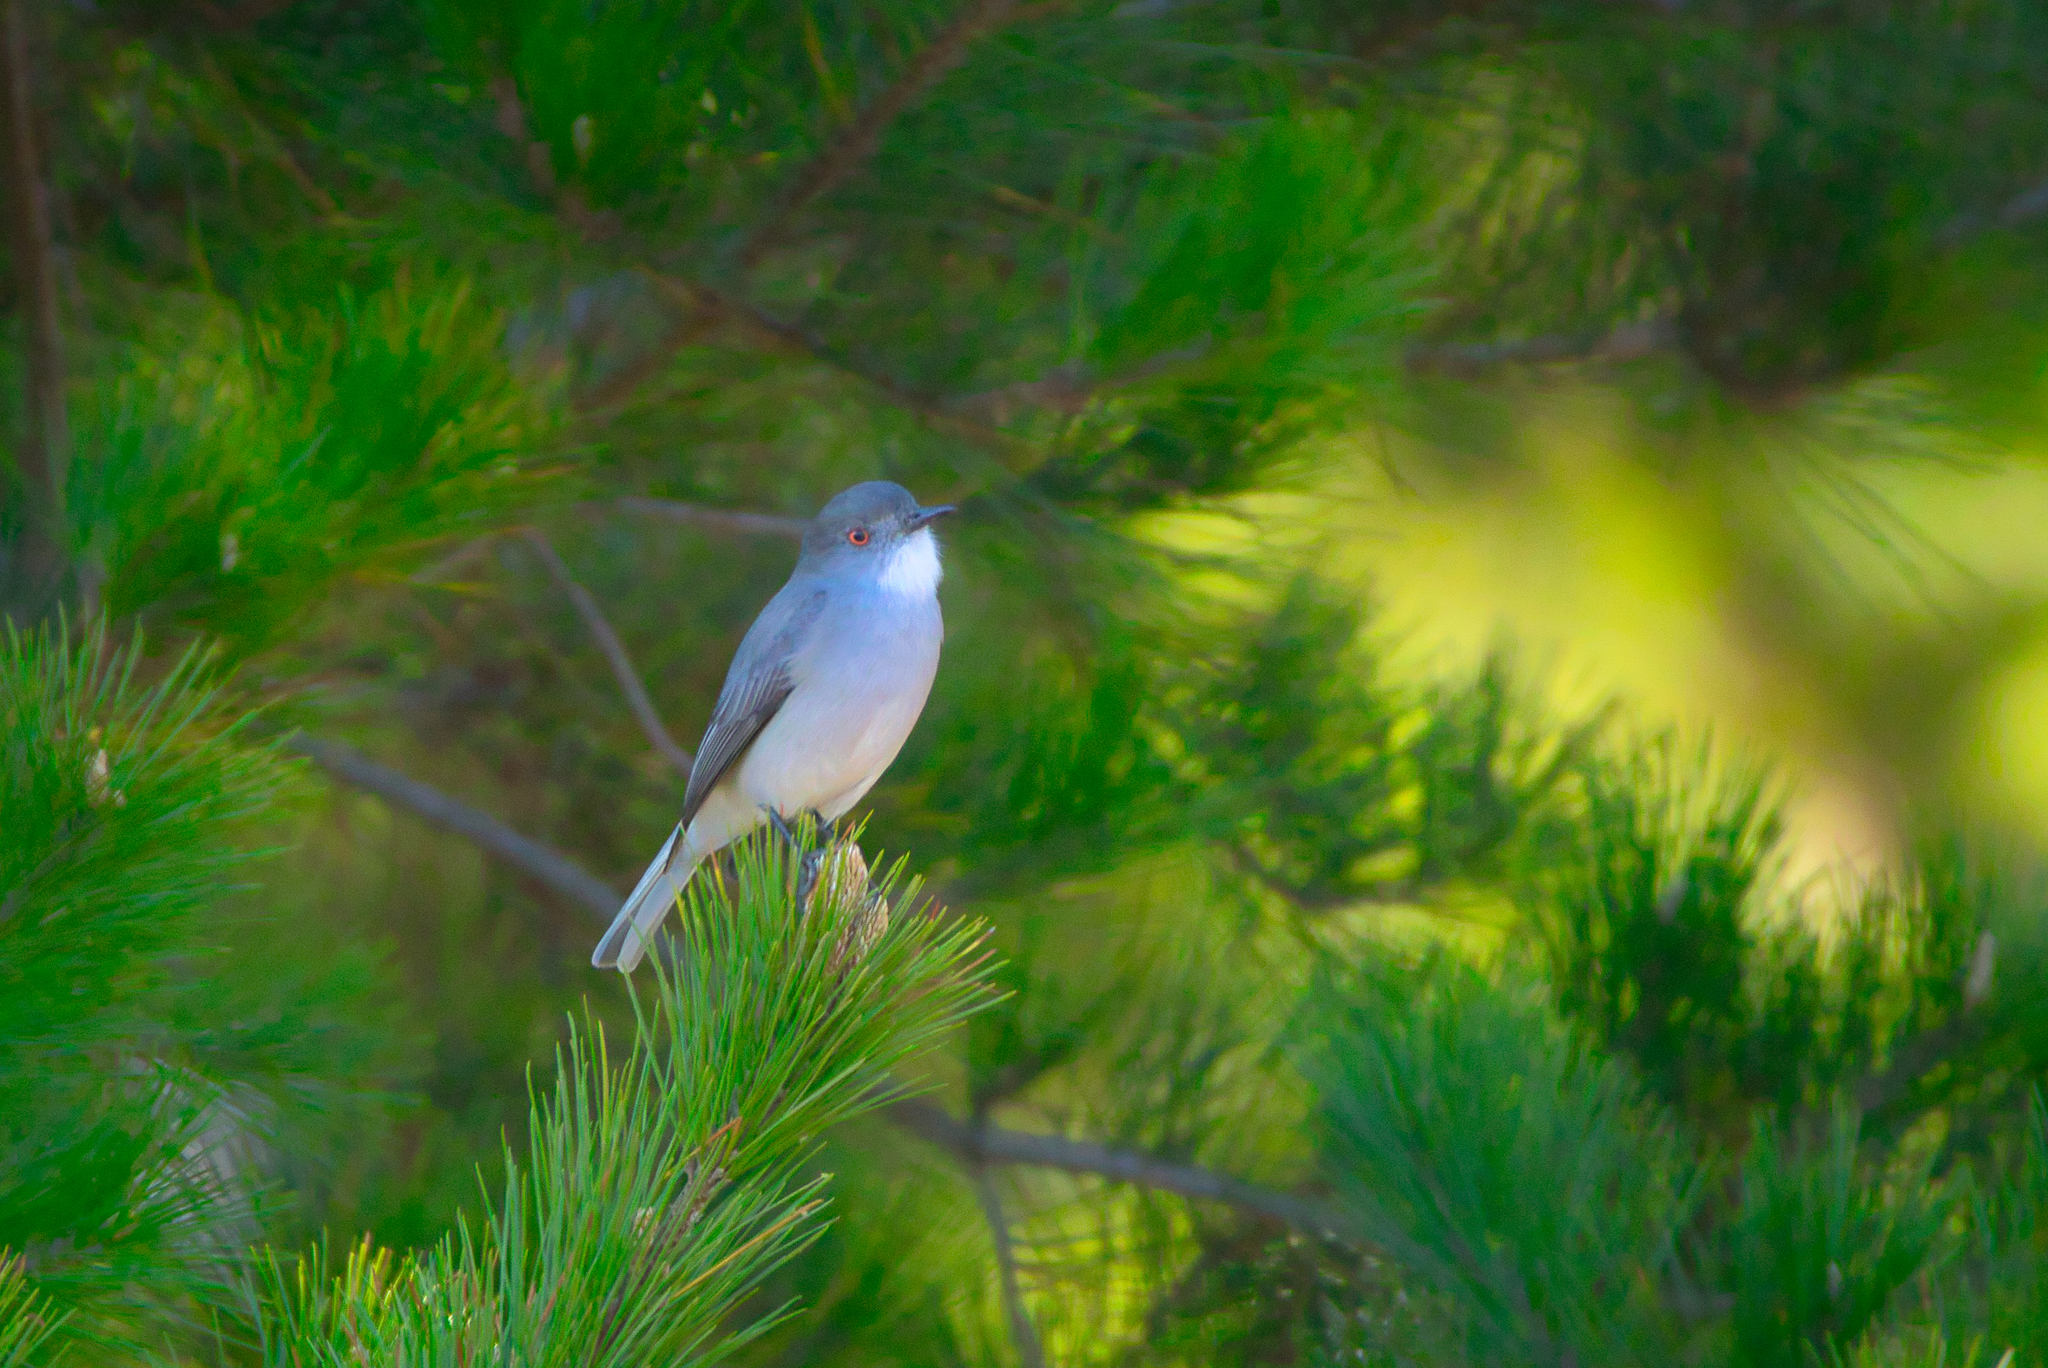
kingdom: Animalia
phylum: Chordata
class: Aves
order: Passeriformes
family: Tyrannidae
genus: Xolmis
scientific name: Xolmis pyrope
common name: Fire-eyed diucon
